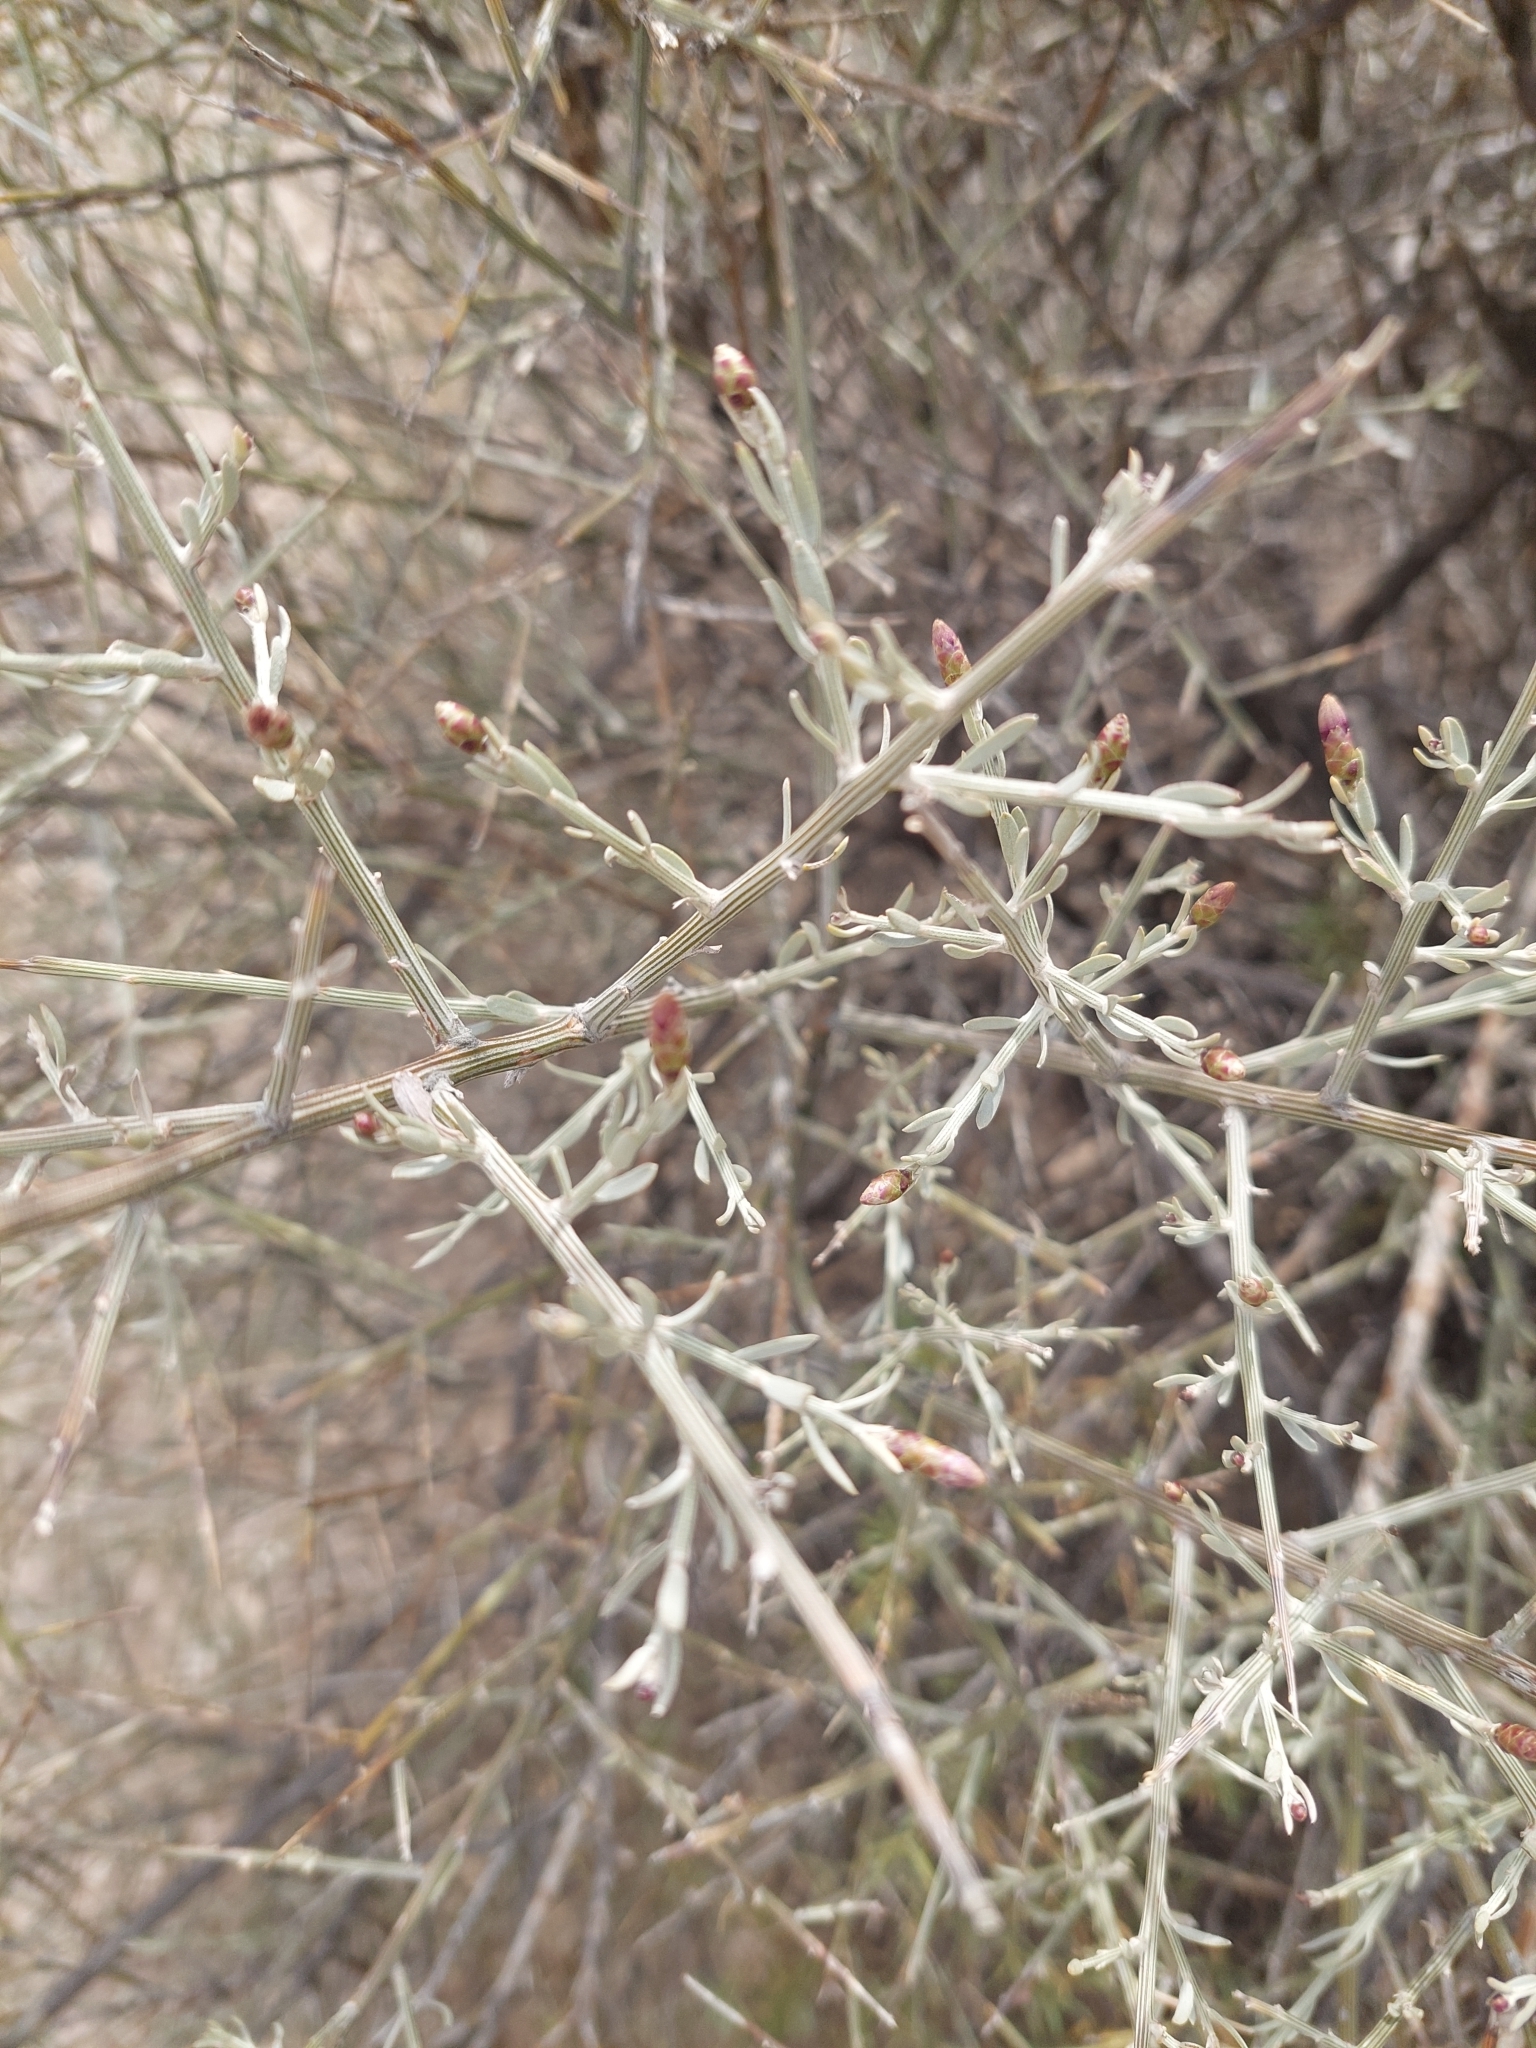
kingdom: Plantae
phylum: Tracheophyta
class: Magnoliopsida
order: Asterales
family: Asteraceae
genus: Cyclolepis
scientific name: Cyclolepis genistoides
